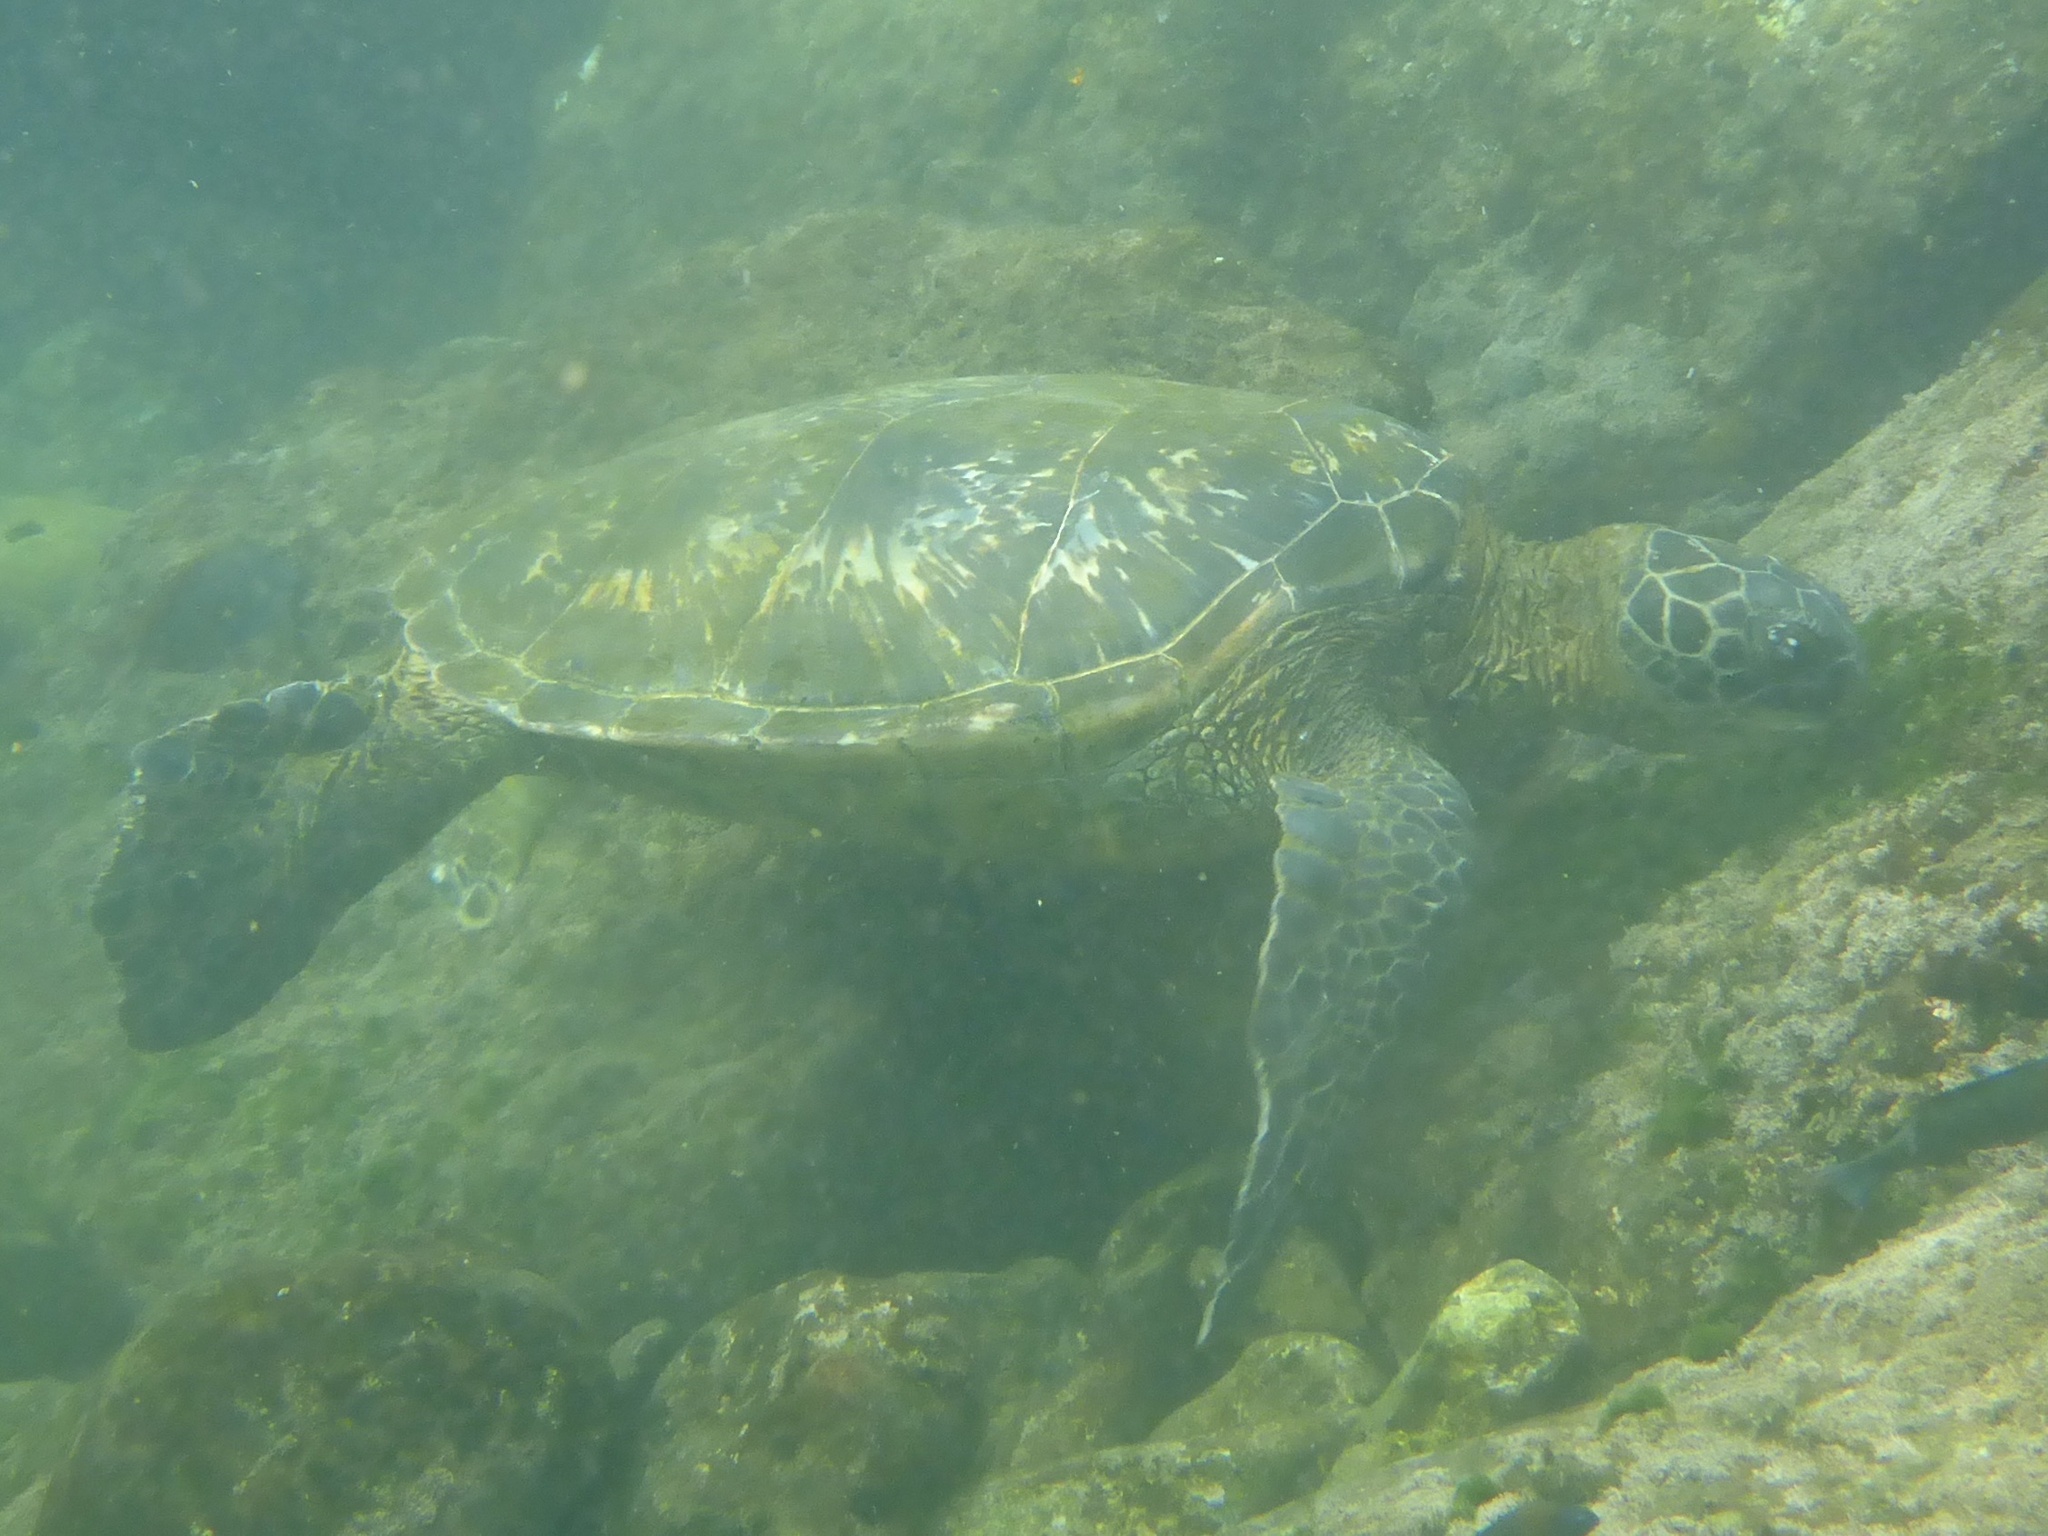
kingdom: Animalia
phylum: Chordata
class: Testudines
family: Cheloniidae
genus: Chelonia
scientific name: Chelonia mydas
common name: Green turtle
